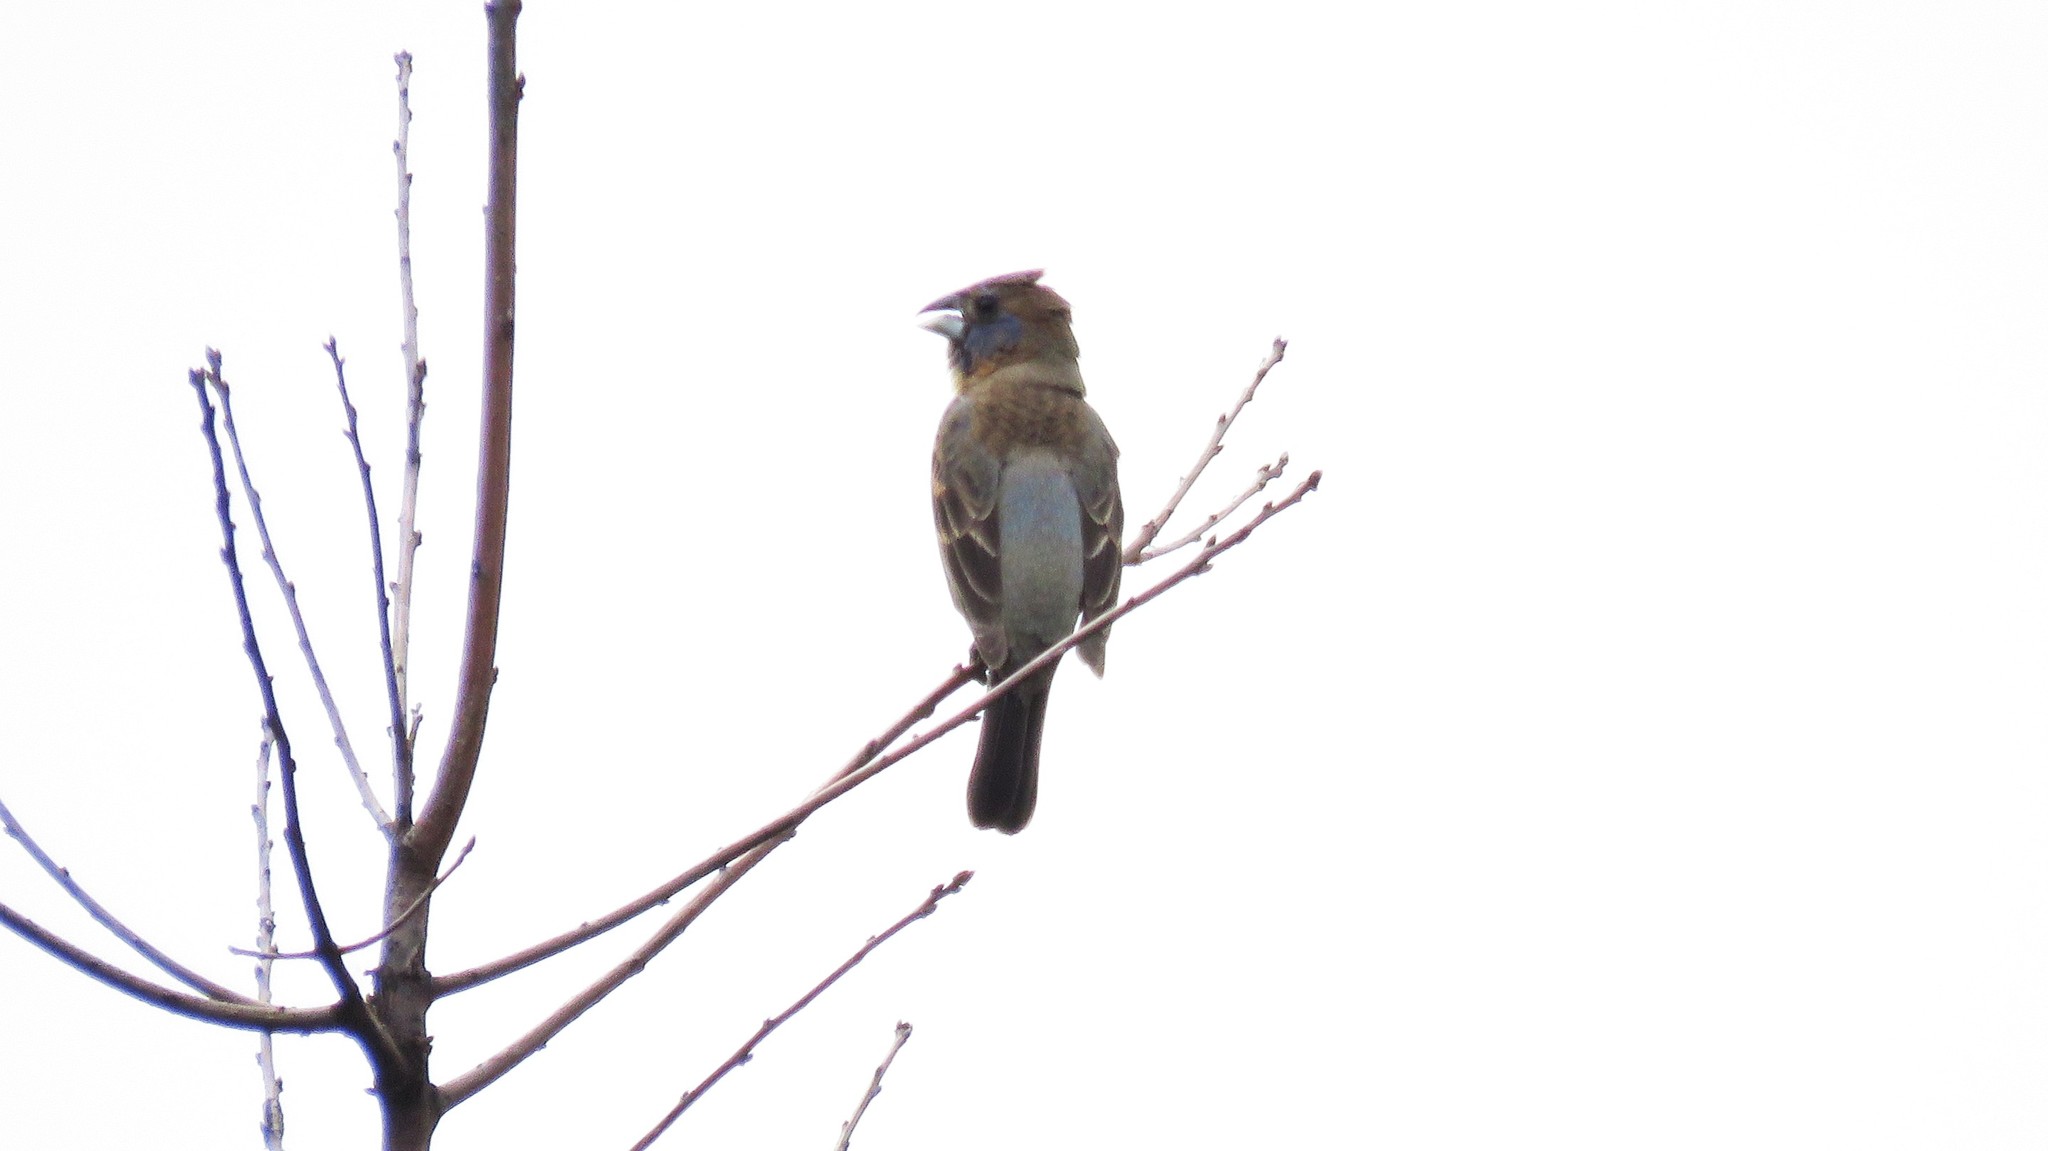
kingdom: Animalia
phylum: Chordata
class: Aves
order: Passeriformes
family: Cardinalidae
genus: Passerina
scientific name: Passerina caerulea
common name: Blue grosbeak
